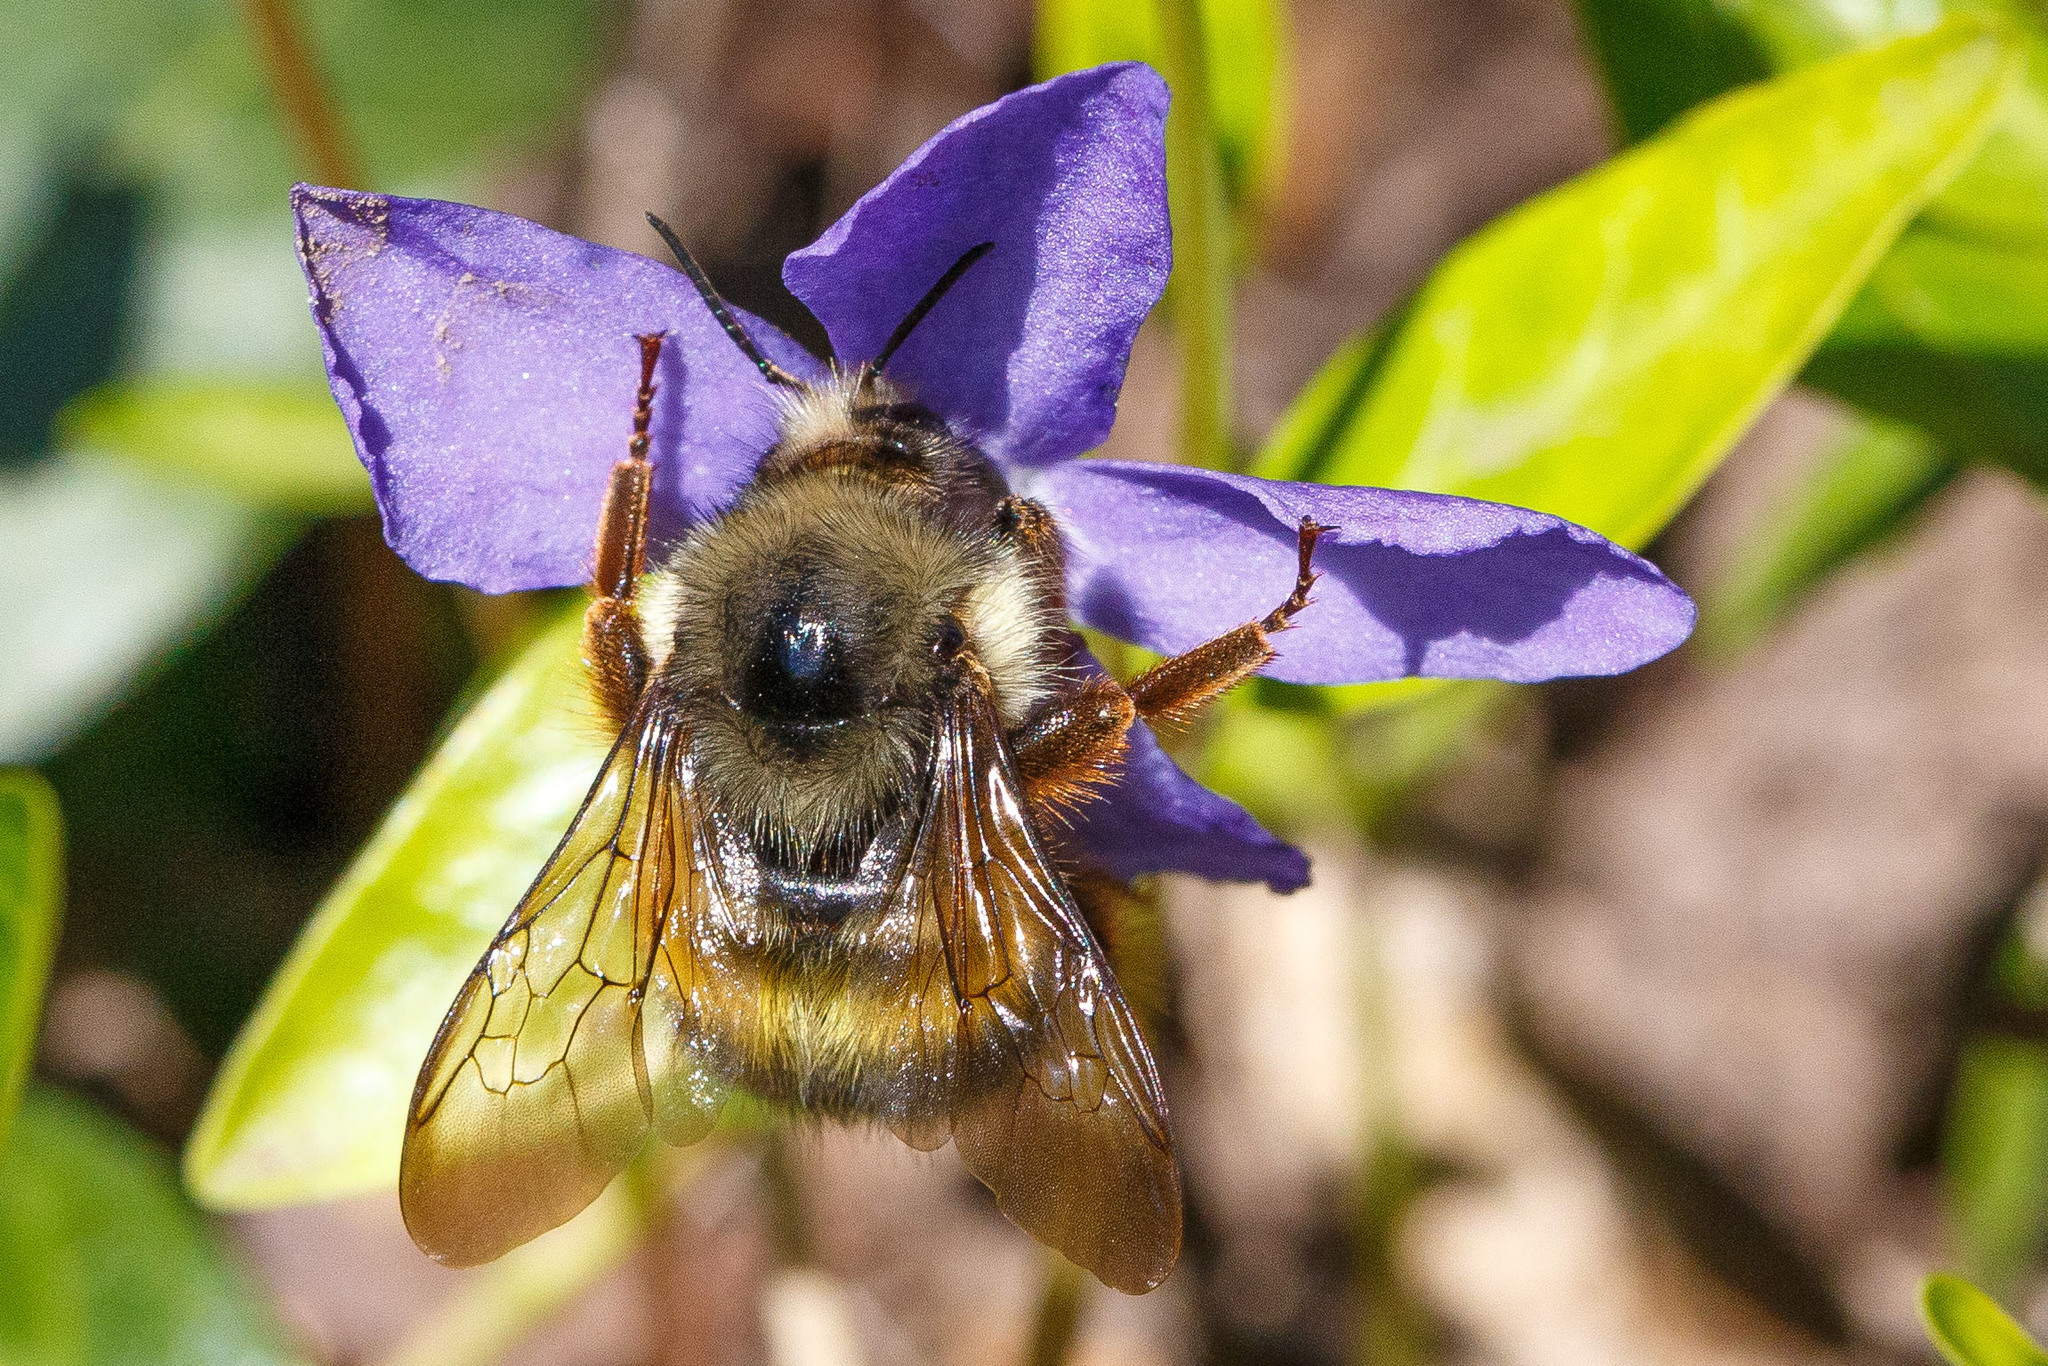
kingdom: Animalia
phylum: Arthropoda
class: Insecta
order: Hymenoptera
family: Apidae
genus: Bombus
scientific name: Bombus sitkensis
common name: Sitka bumble bee
